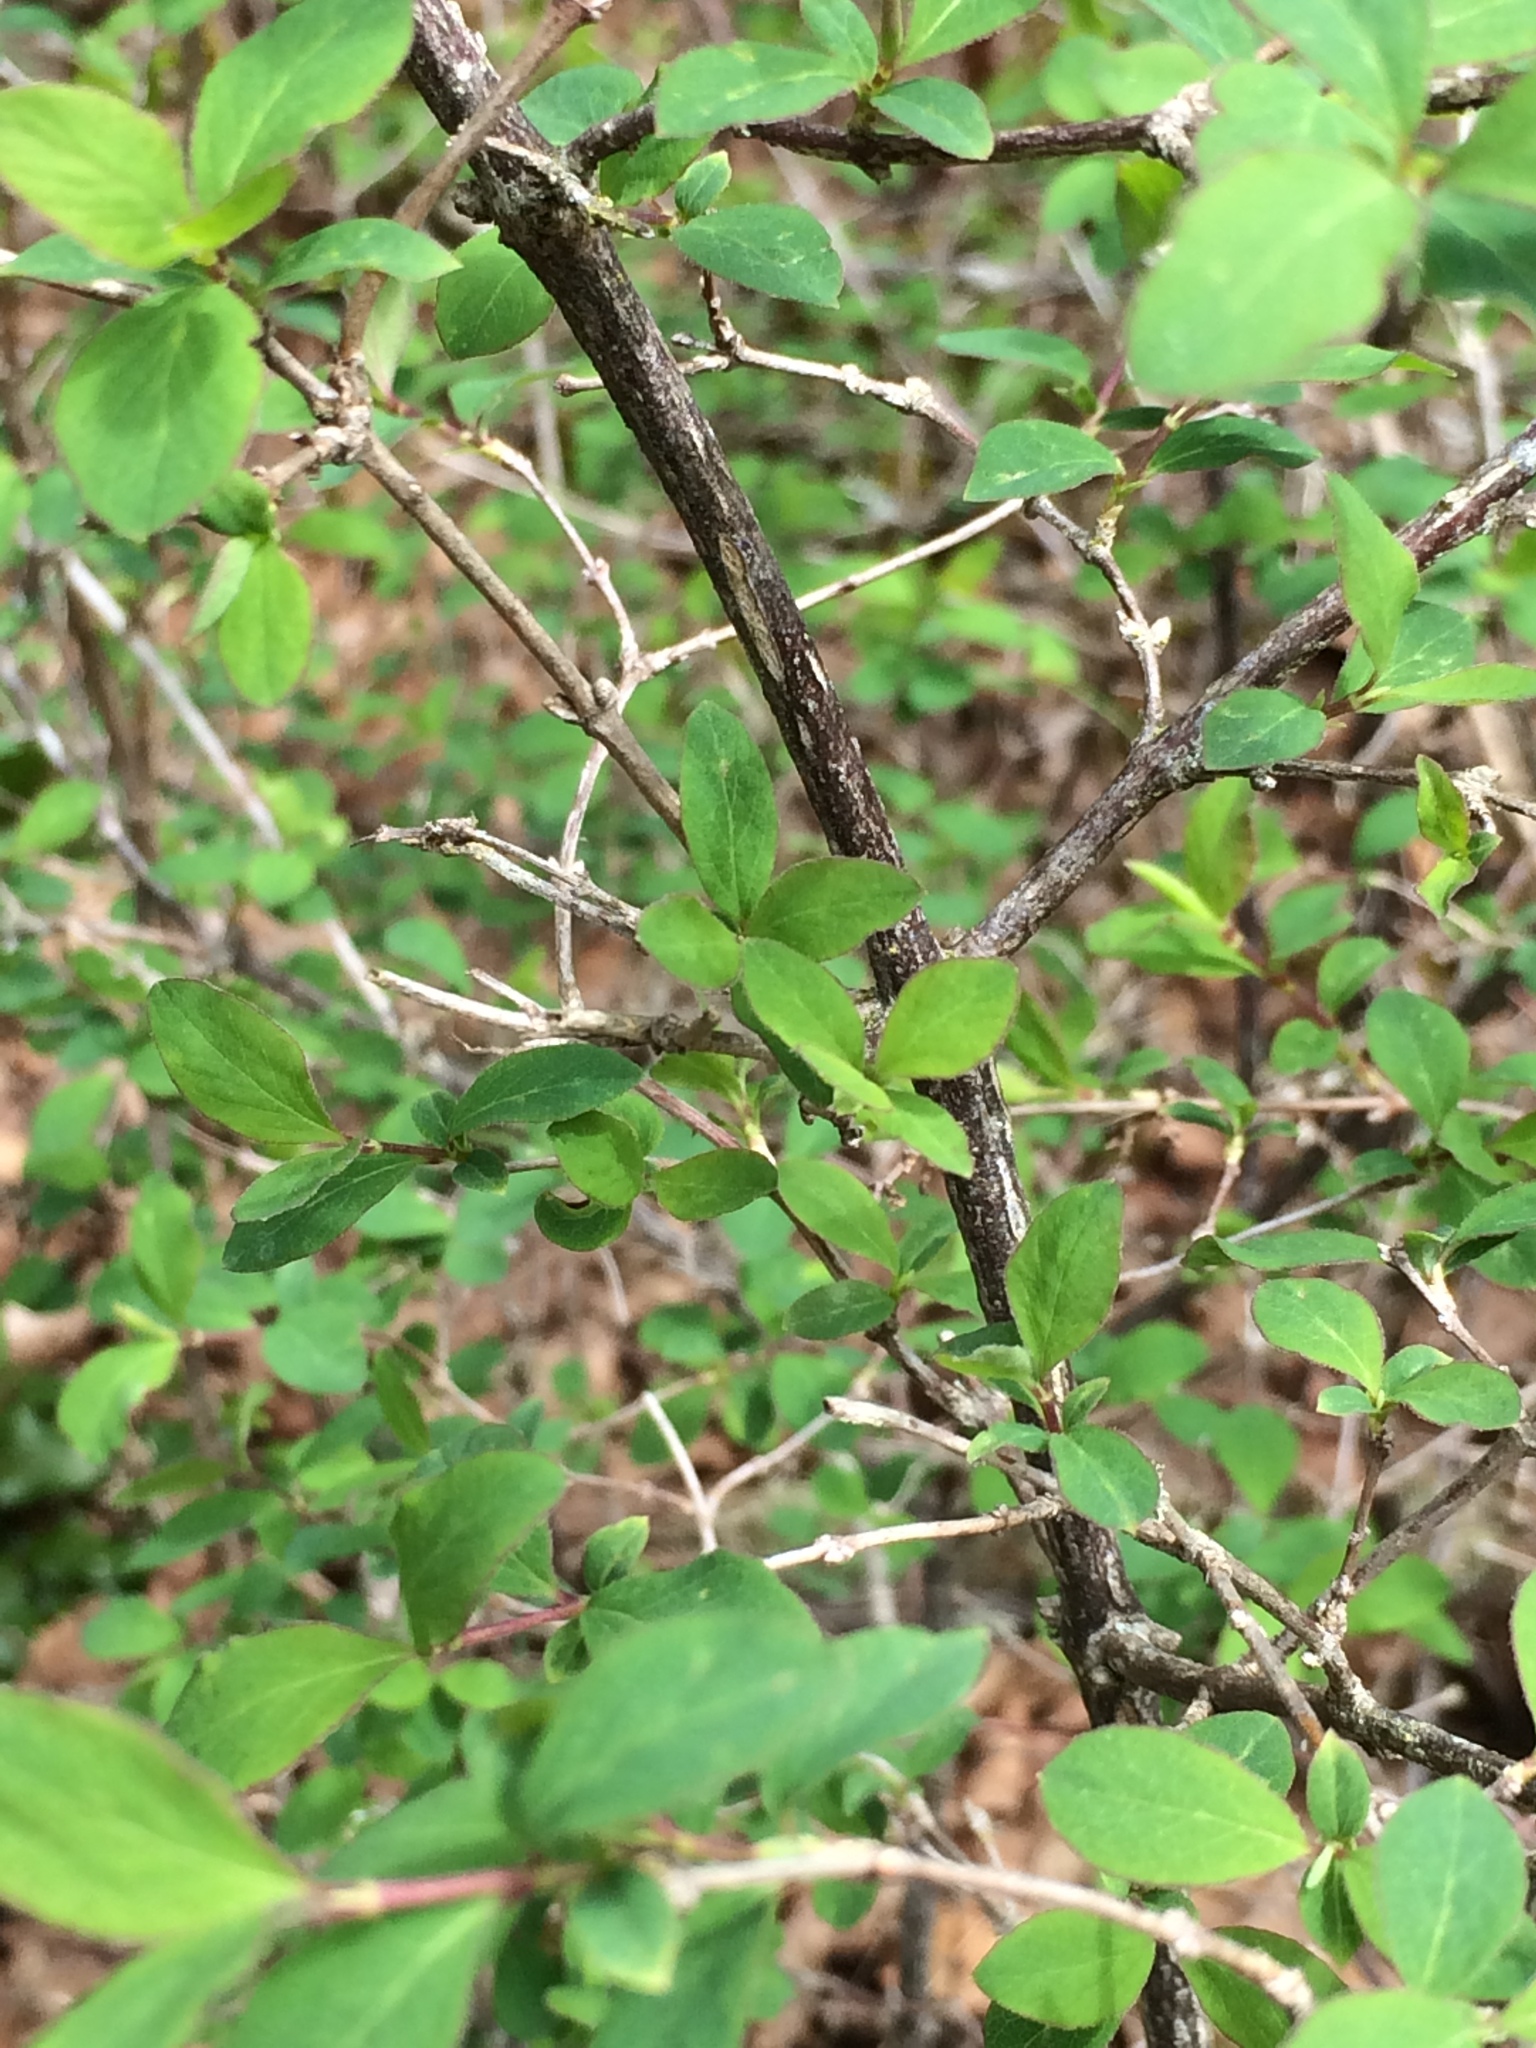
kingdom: Plantae
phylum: Tracheophyta
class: Magnoliopsida
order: Dipsacales
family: Caprifoliaceae
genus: Symphoricarpos
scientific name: Symphoricarpos albus
